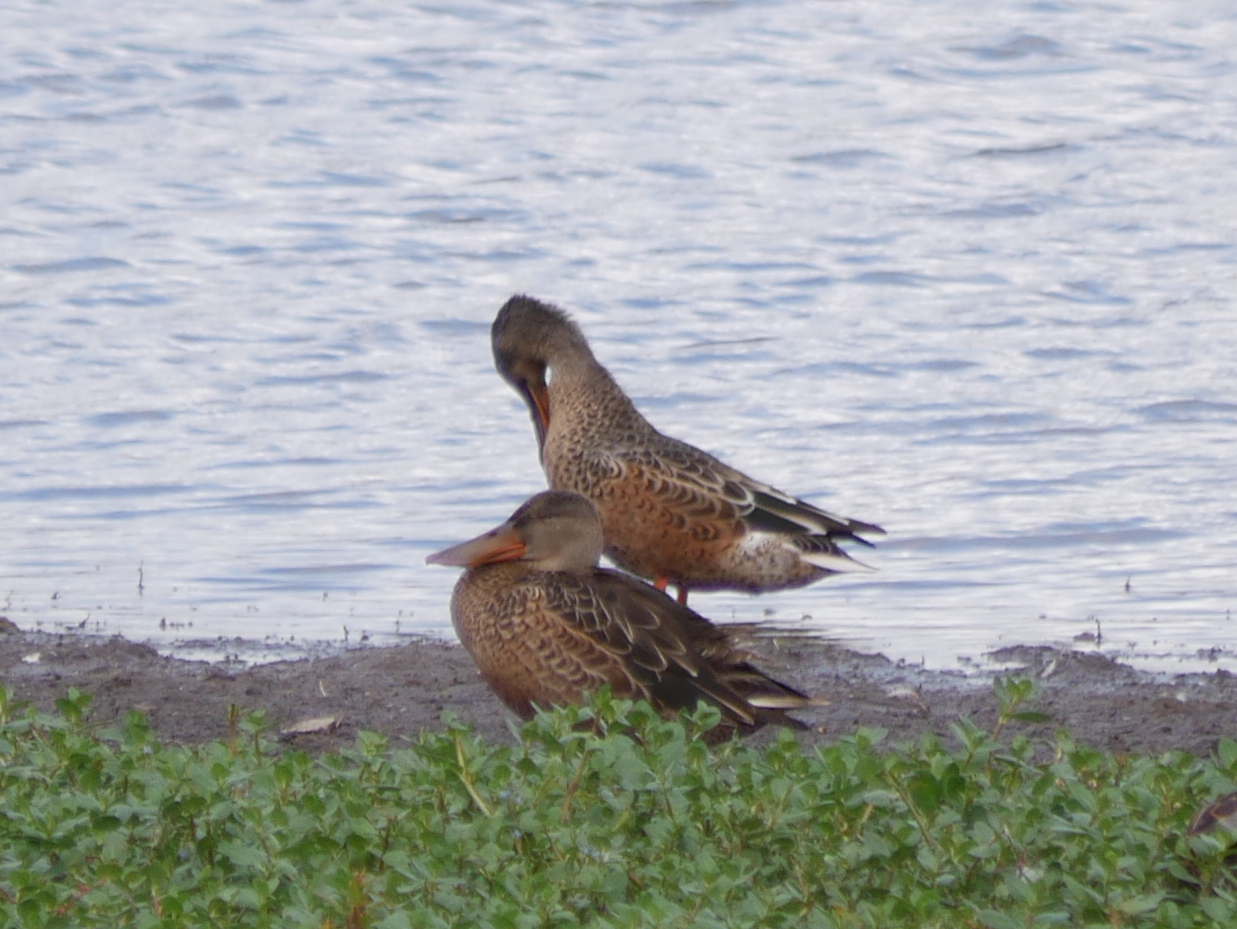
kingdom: Animalia
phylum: Chordata
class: Aves
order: Anseriformes
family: Anatidae
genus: Spatula
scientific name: Spatula clypeata
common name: Northern shoveler
